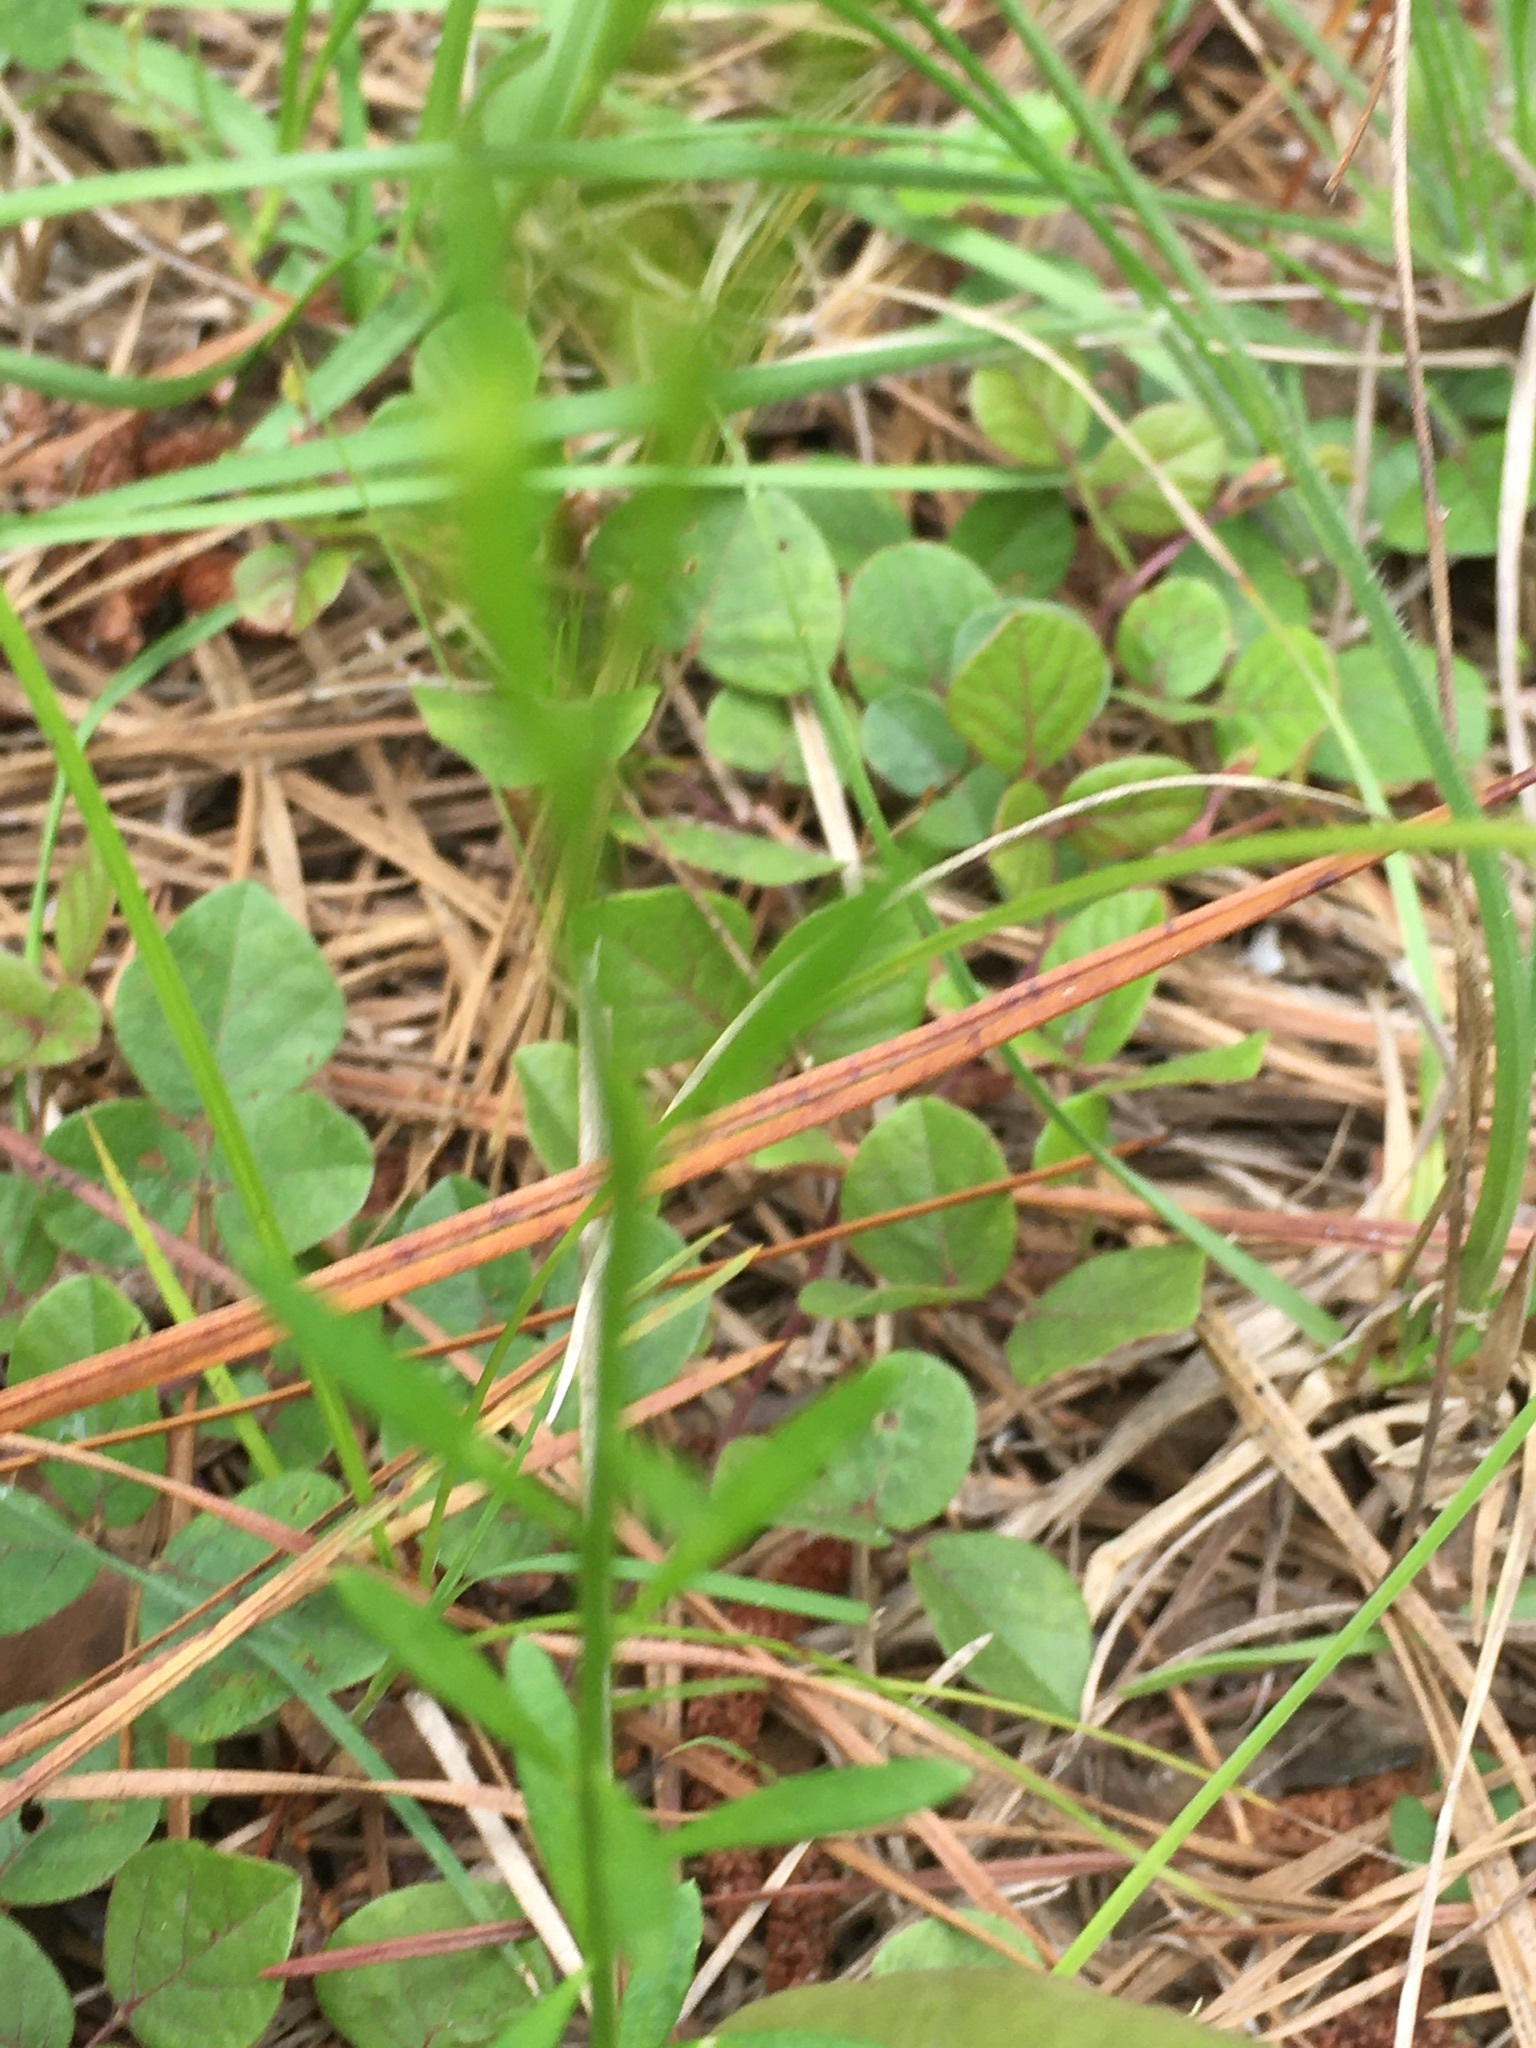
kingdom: Plantae
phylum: Tracheophyta
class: Magnoliopsida
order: Fabales
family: Polygalaceae
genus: Polygala
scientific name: Polygala curtissii
